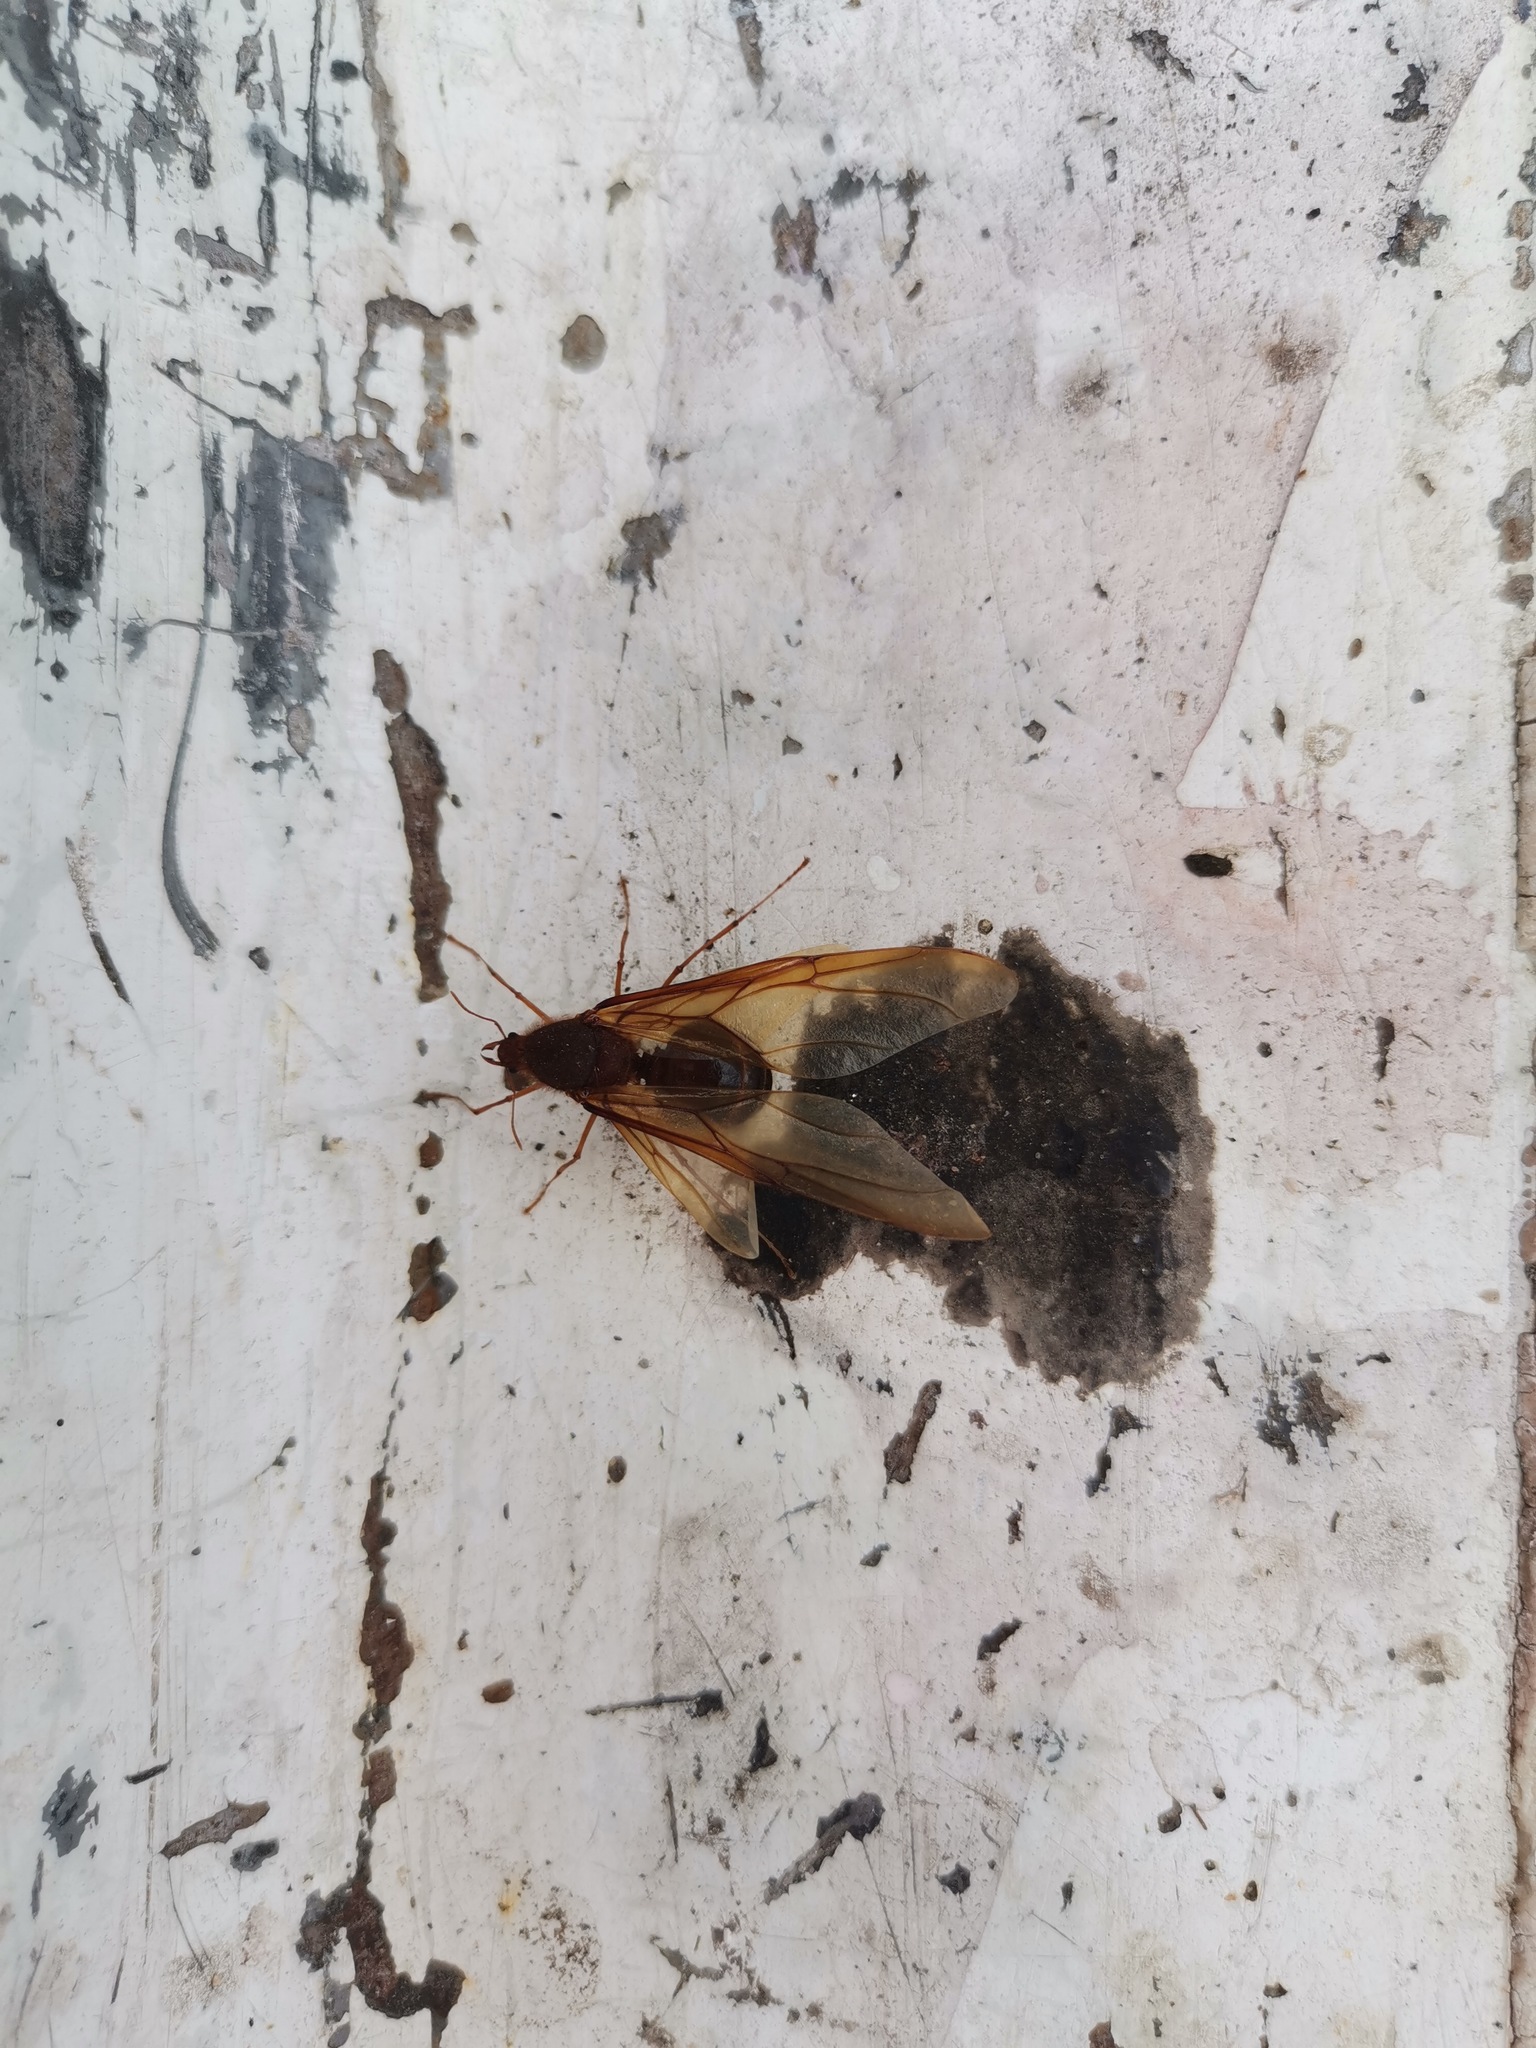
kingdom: Animalia
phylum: Arthropoda
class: Insecta
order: Hymenoptera
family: Formicidae
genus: Atta
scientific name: Atta mexicana
